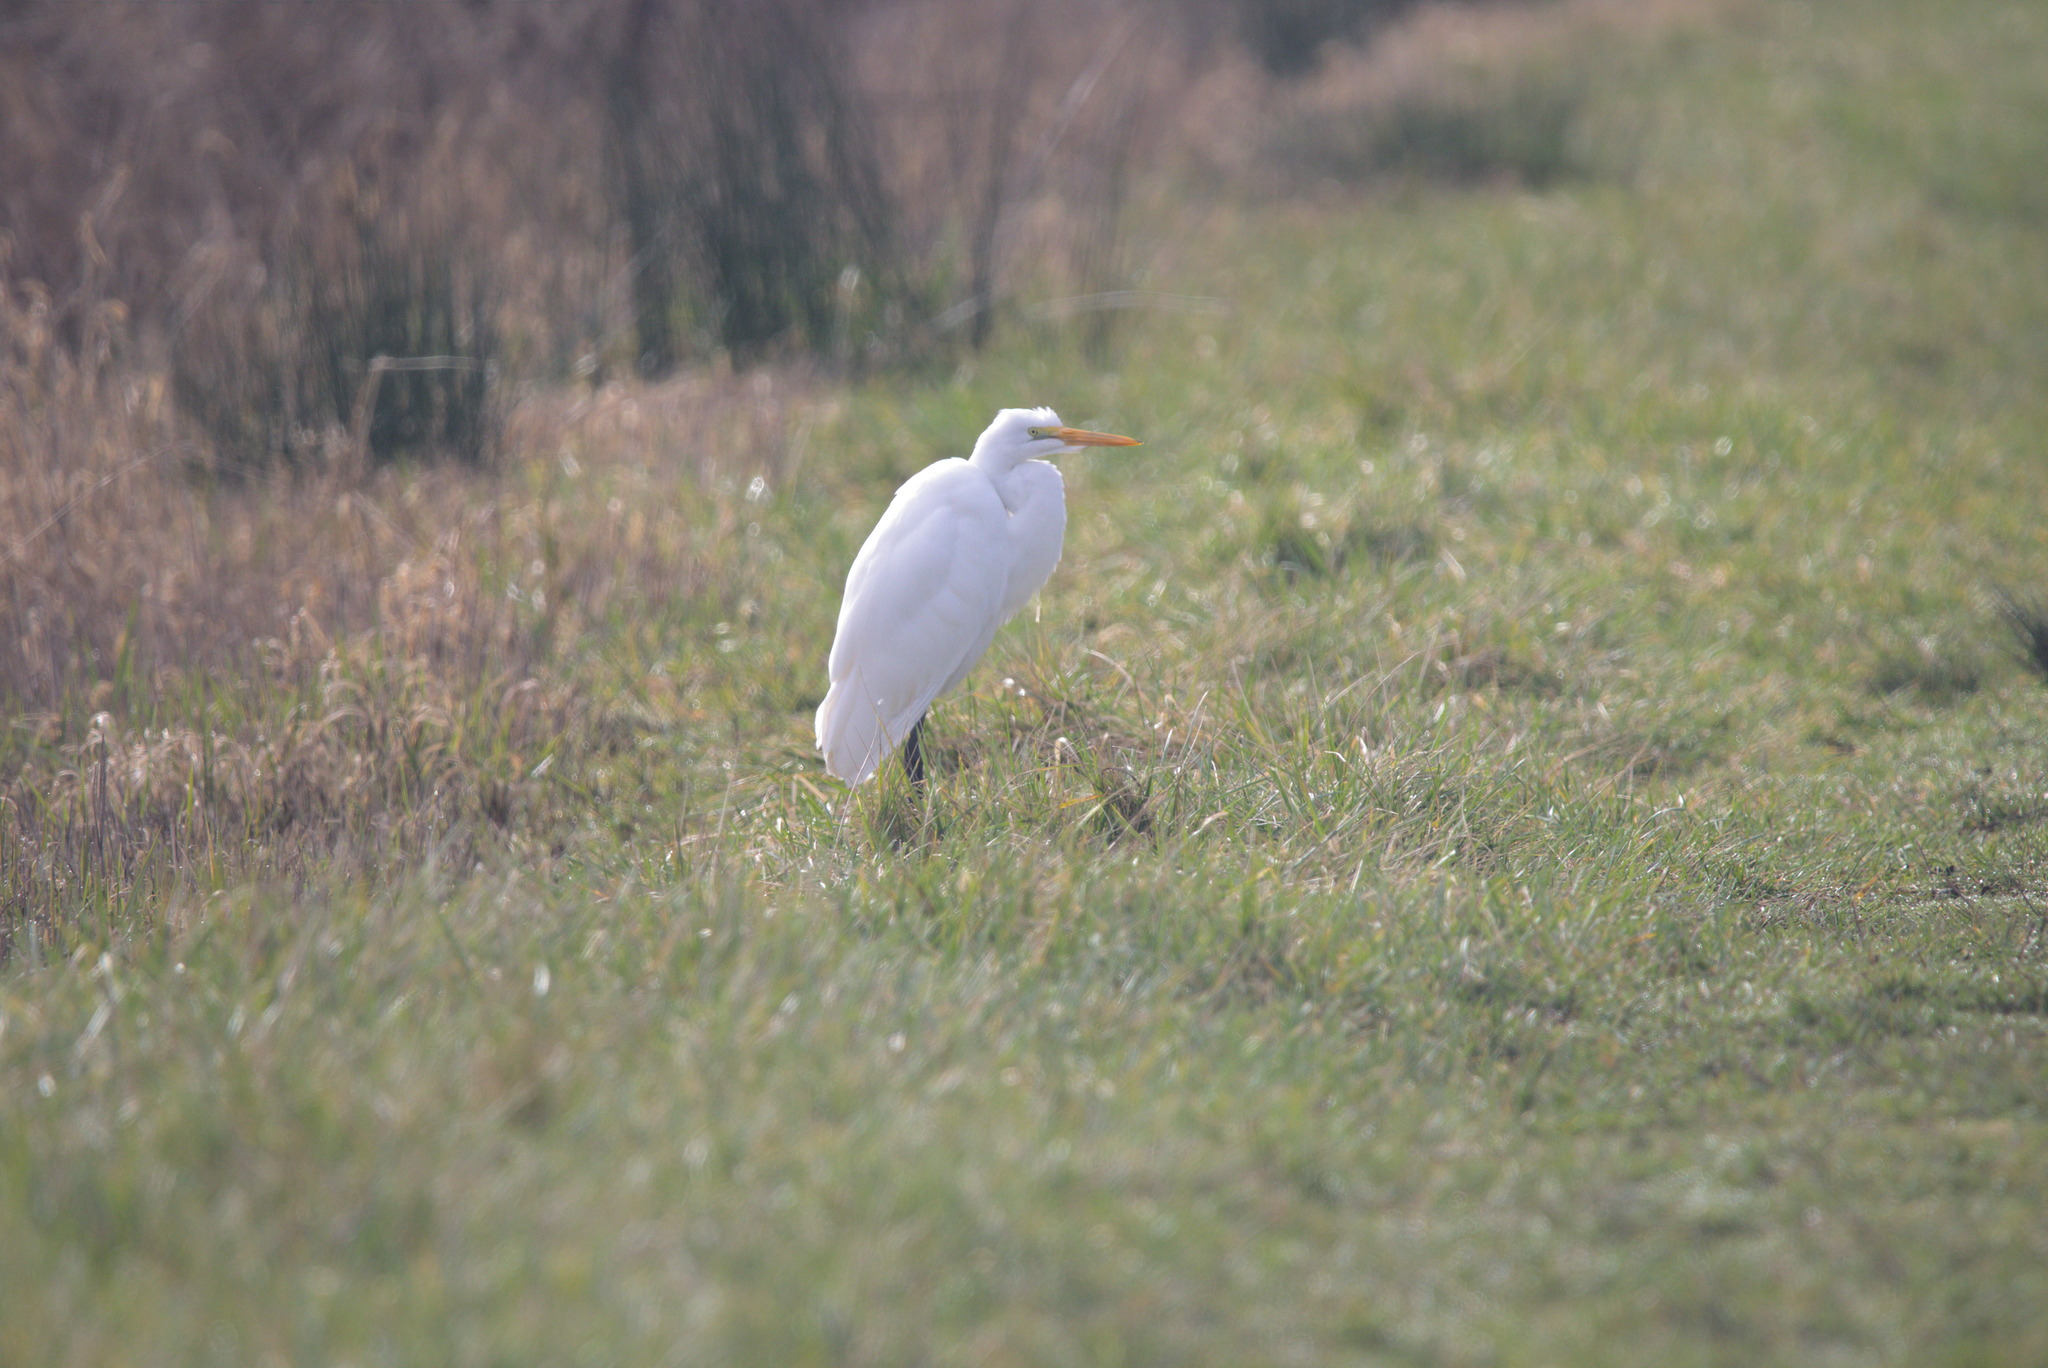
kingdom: Animalia
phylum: Chordata
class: Aves
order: Pelecaniformes
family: Ardeidae
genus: Ardea
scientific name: Ardea alba
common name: Great egret
